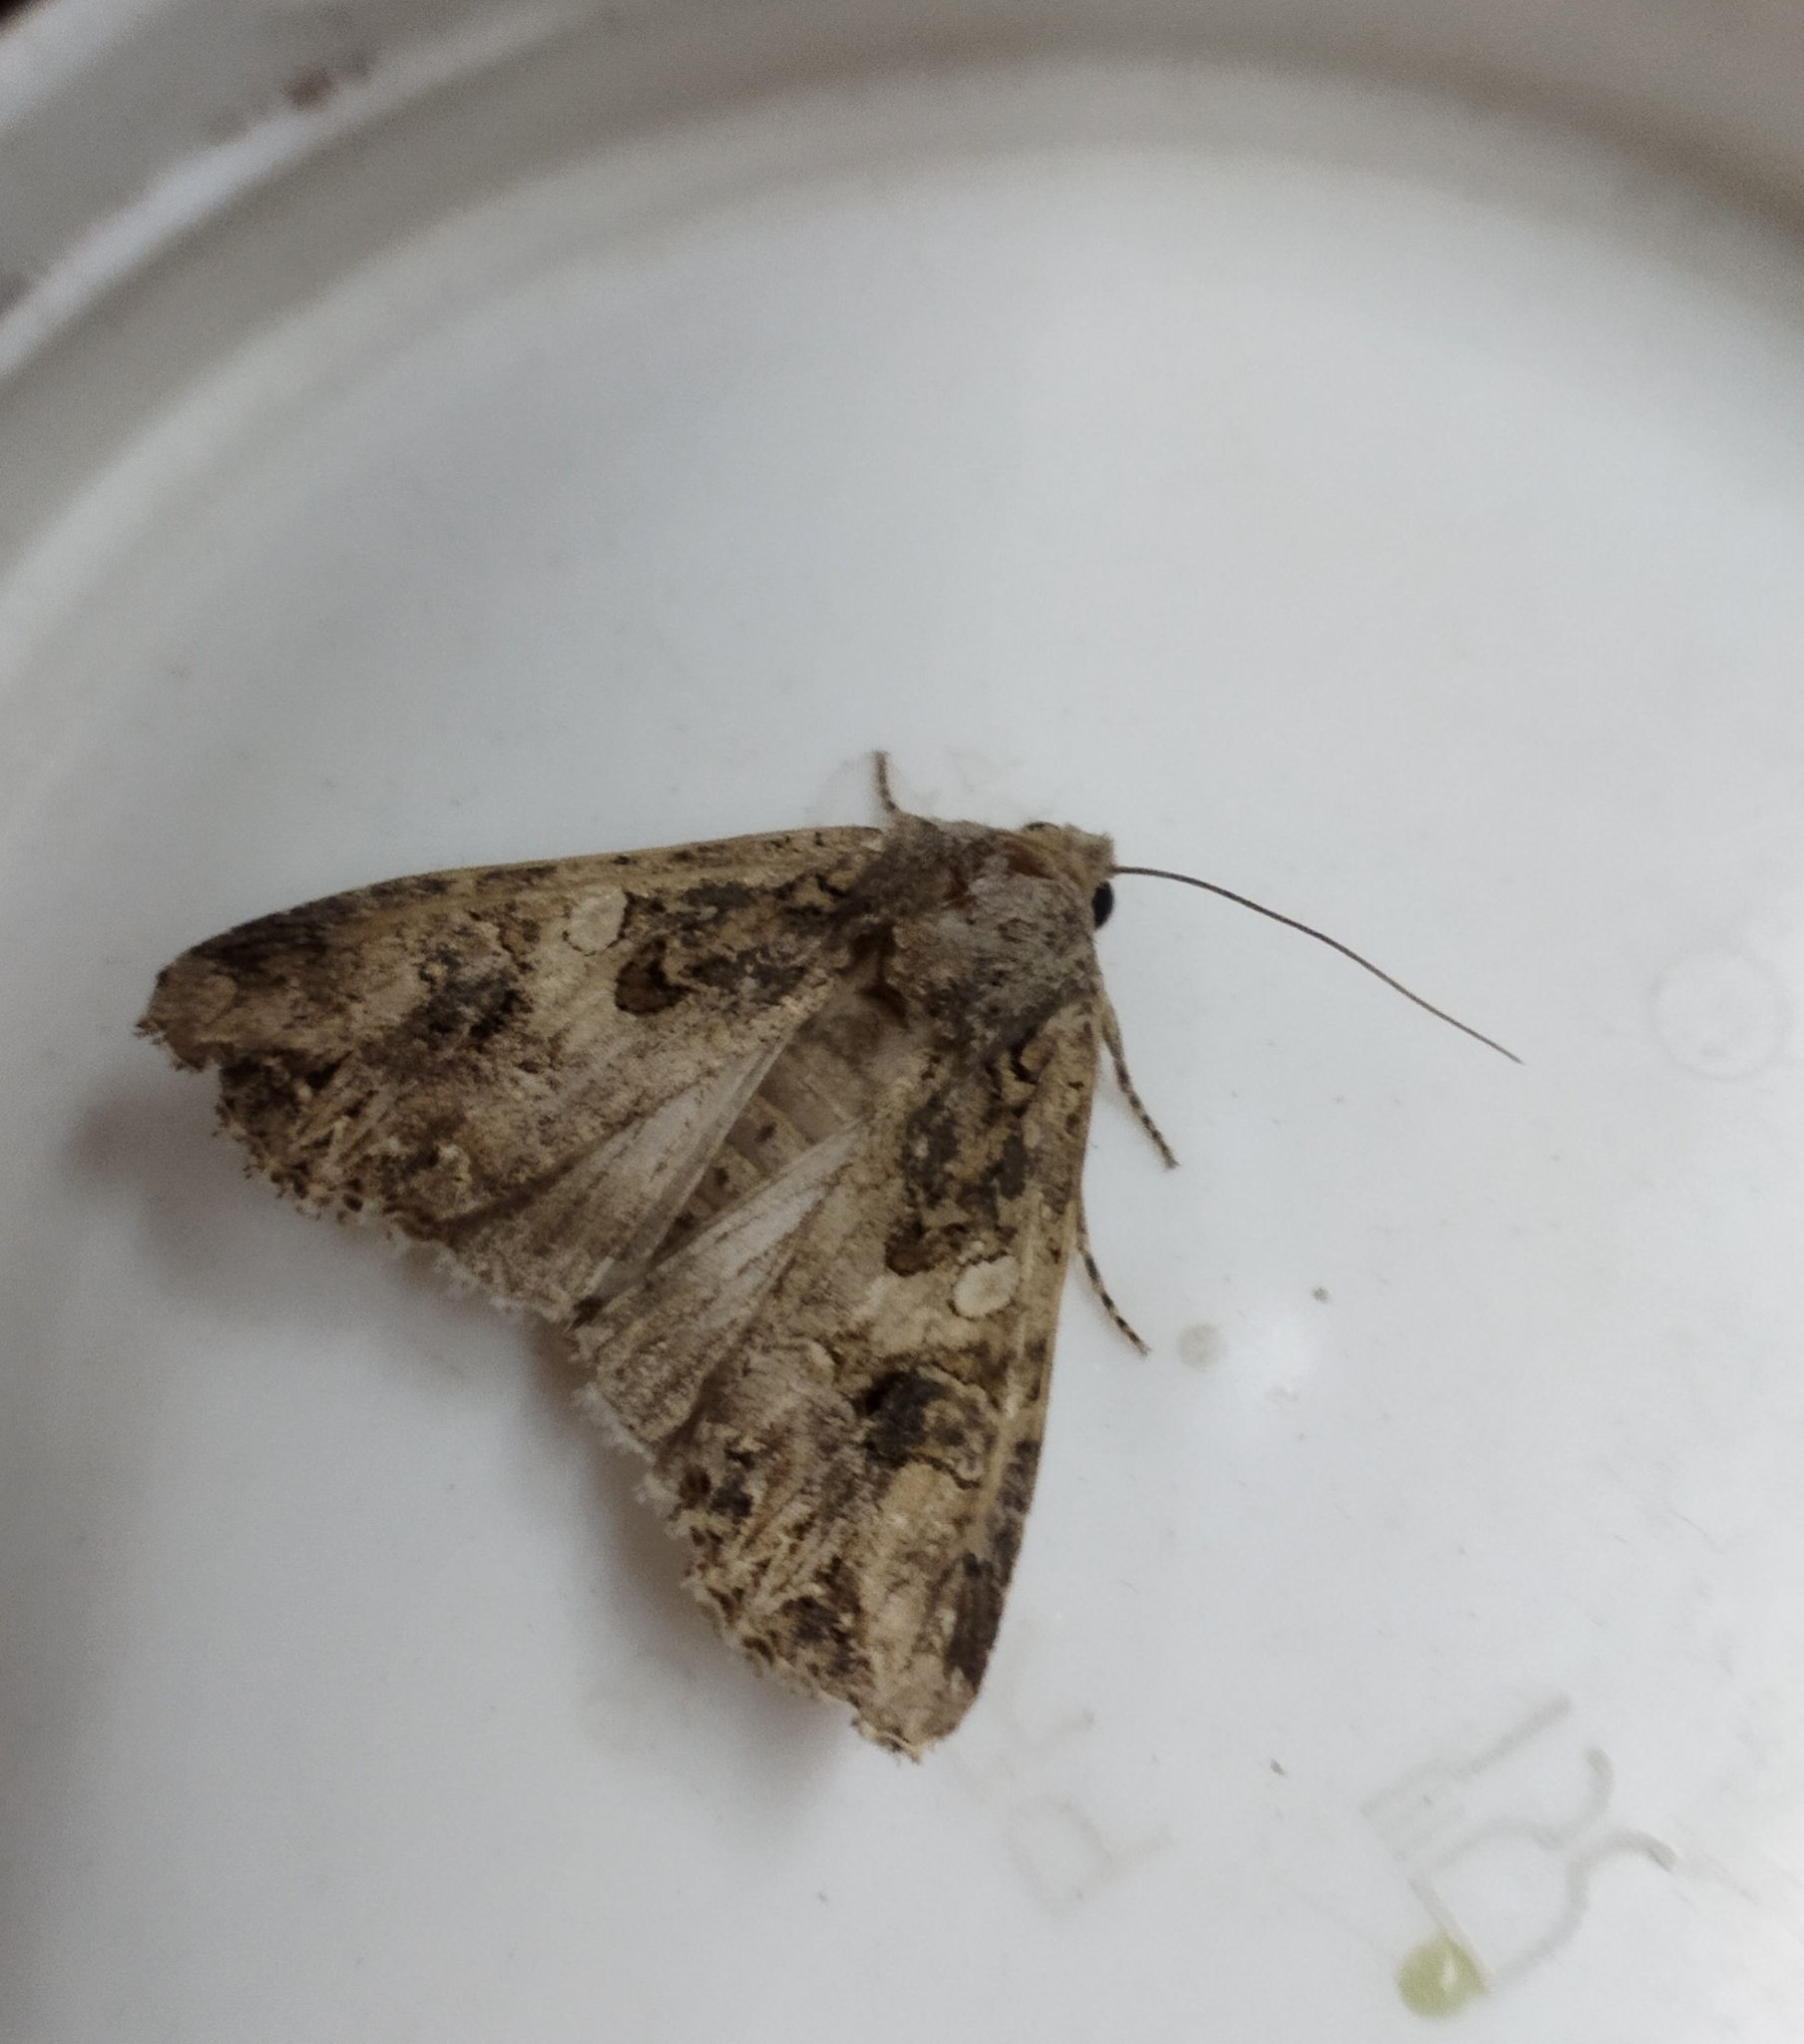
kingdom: Animalia
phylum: Arthropoda
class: Insecta
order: Lepidoptera
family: Noctuidae
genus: Anarta
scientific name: Anarta trifolii
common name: Clover cutworm moth
